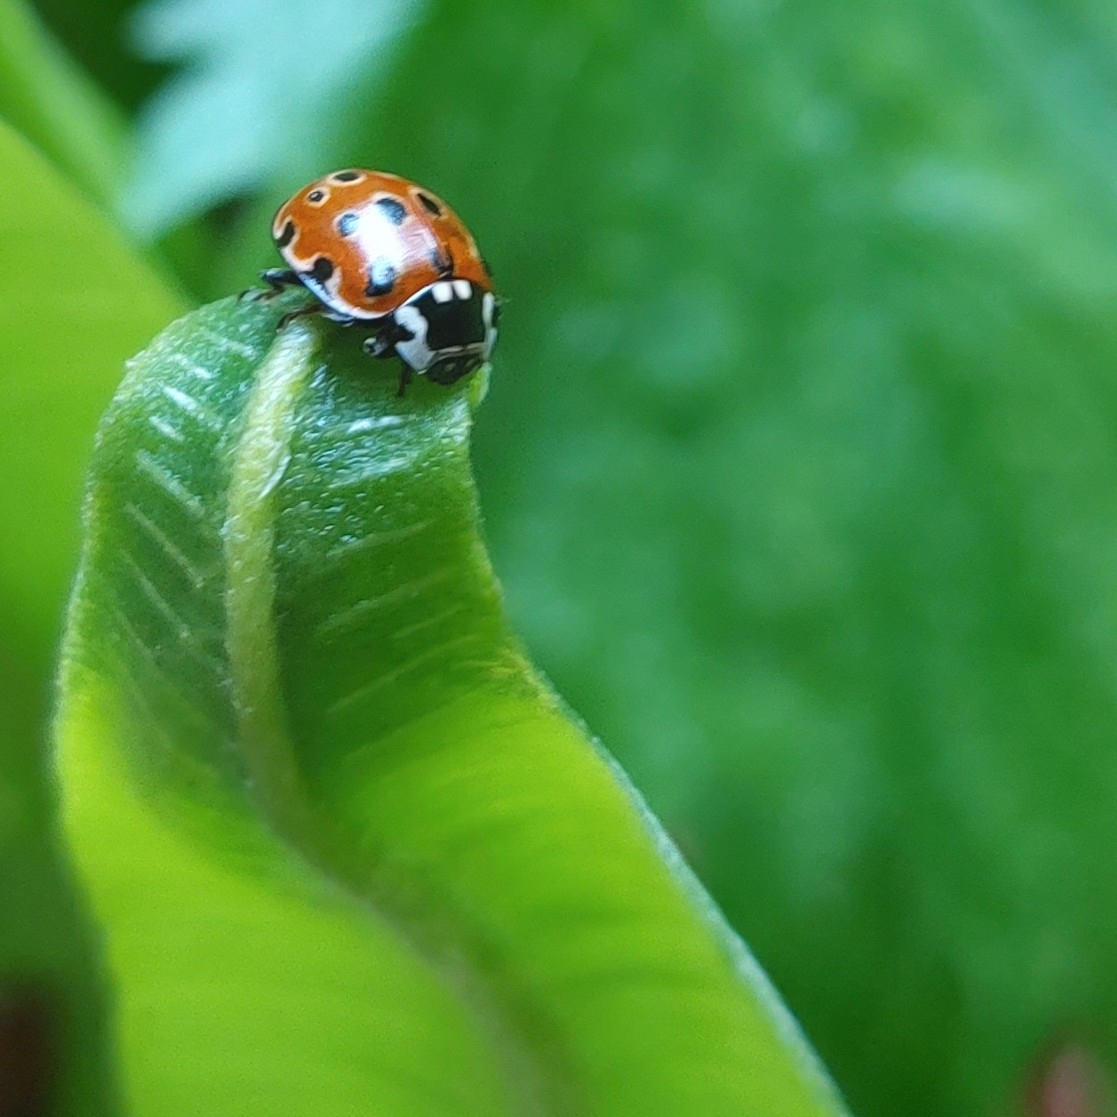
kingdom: Animalia
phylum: Arthropoda
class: Insecta
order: Coleoptera
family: Coccinellidae
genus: Anatis
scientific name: Anatis ocellata
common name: Eyed ladybird
